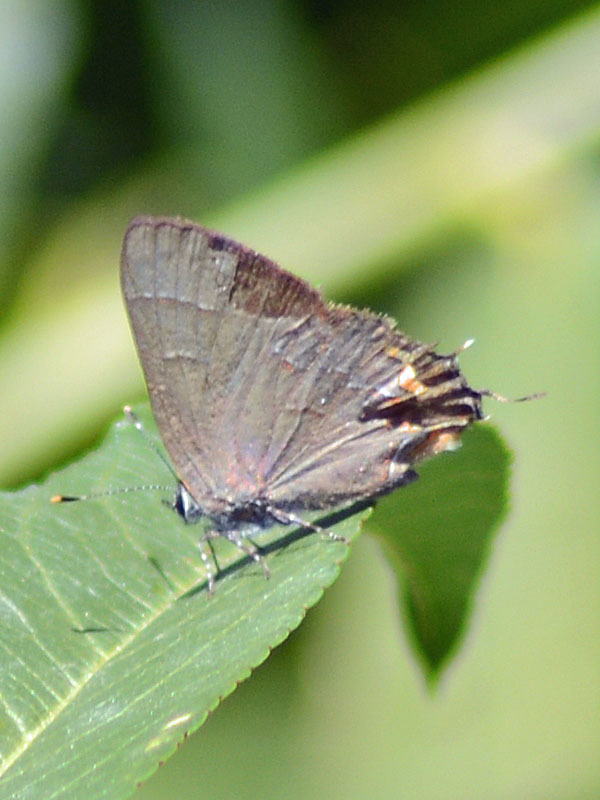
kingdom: Animalia
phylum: Arthropoda
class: Insecta
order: Lepidoptera
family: Lycaenidae
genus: Electrostrymon
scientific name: Electrostrymon
